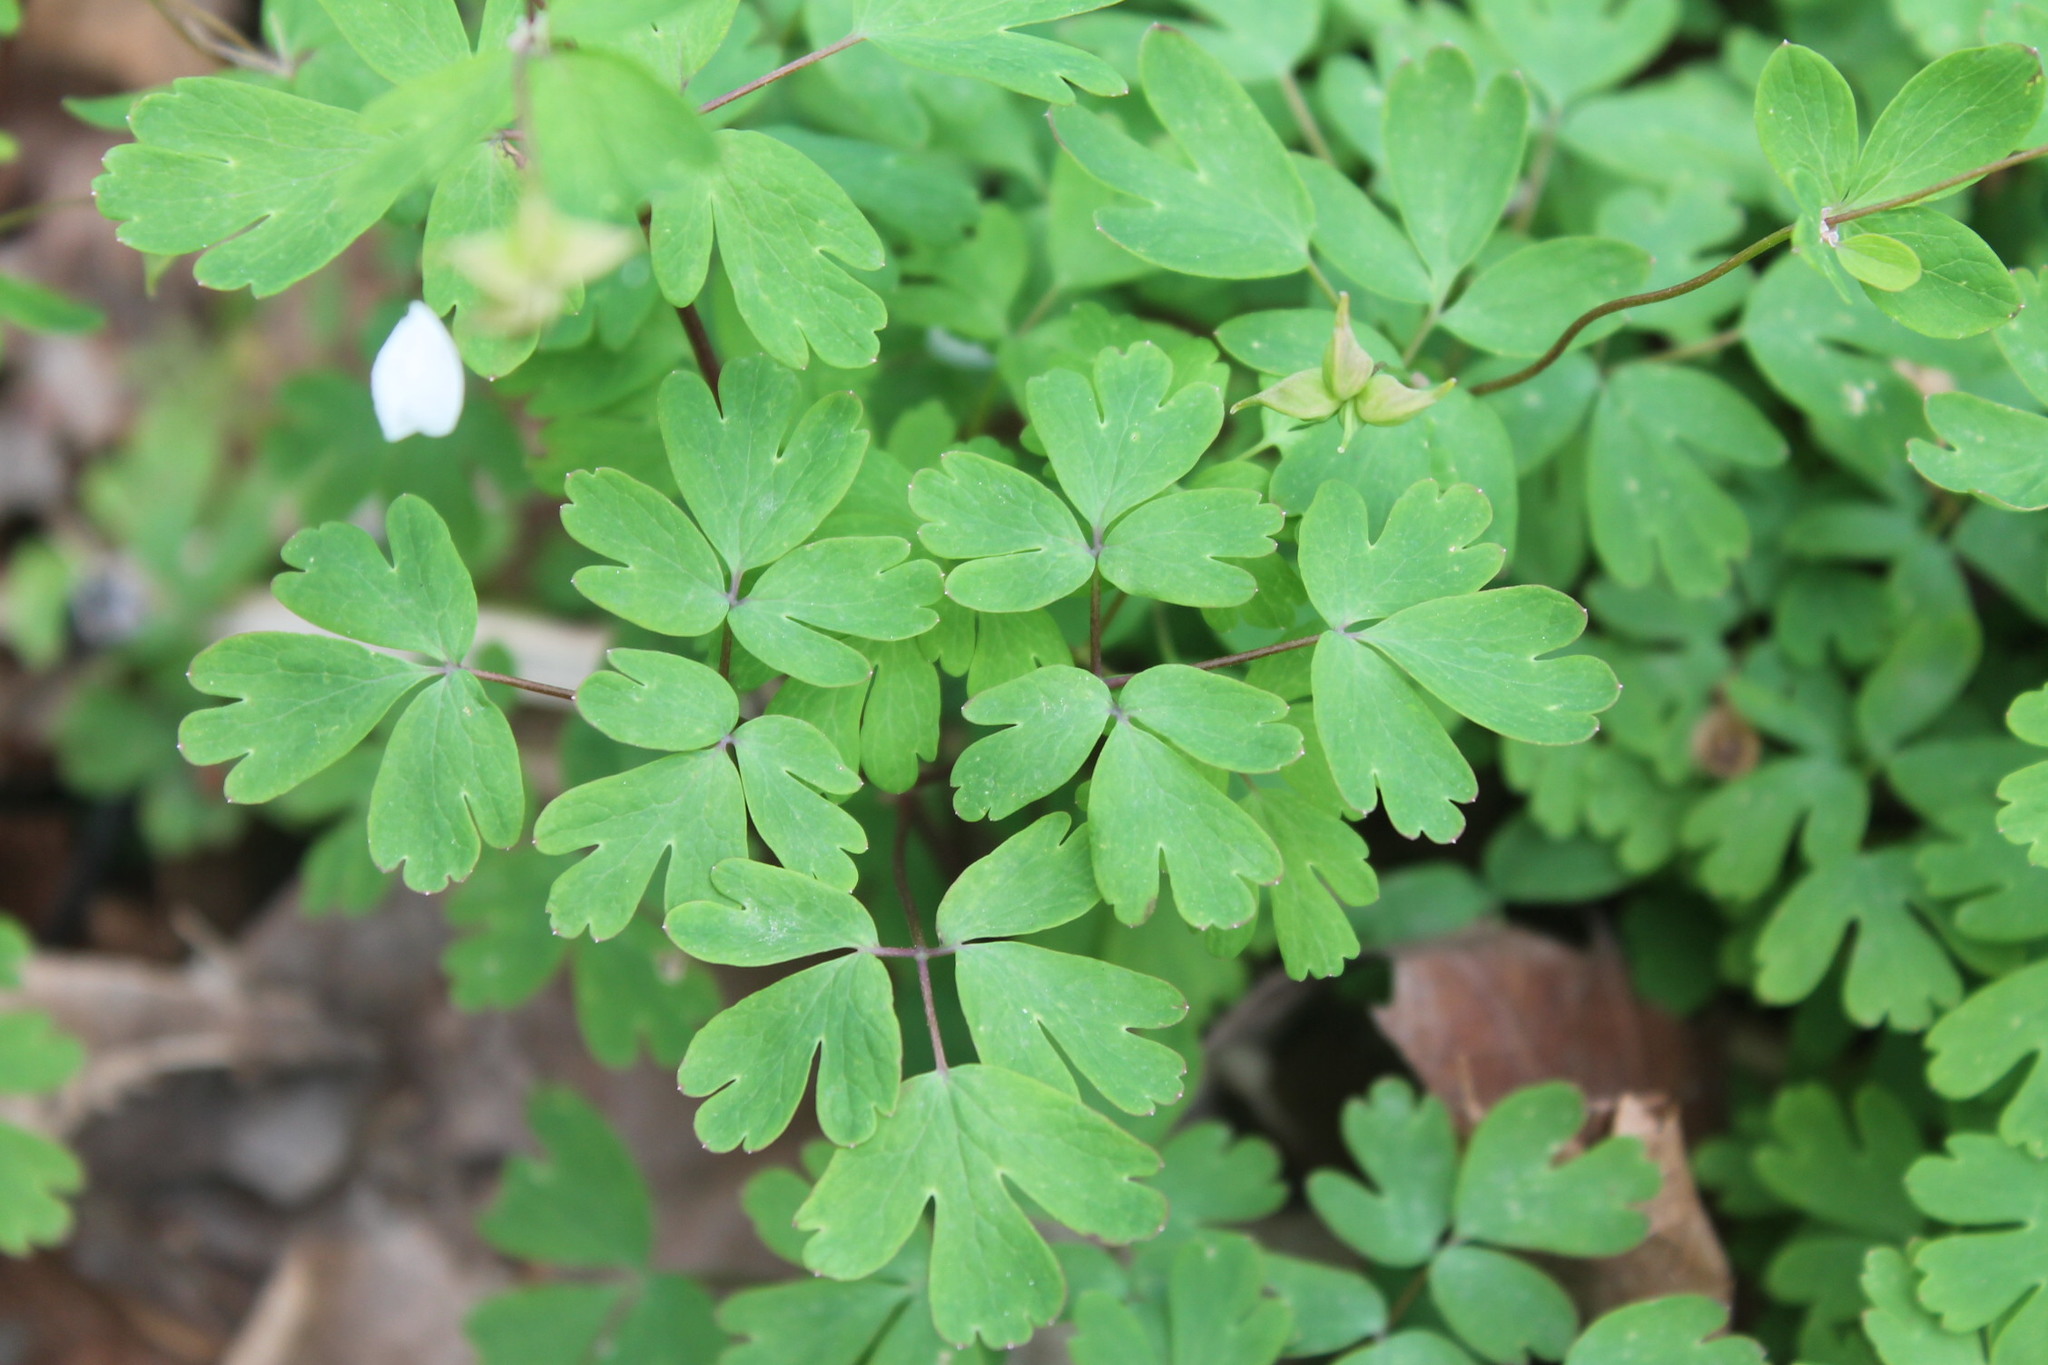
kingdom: Plantae
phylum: Tracheophyta
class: Magnoliopsida
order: Ranunculales
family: Ranunculaceae
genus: Enemion
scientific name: Enemion biternatum
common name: Eastern false rue-anemone
